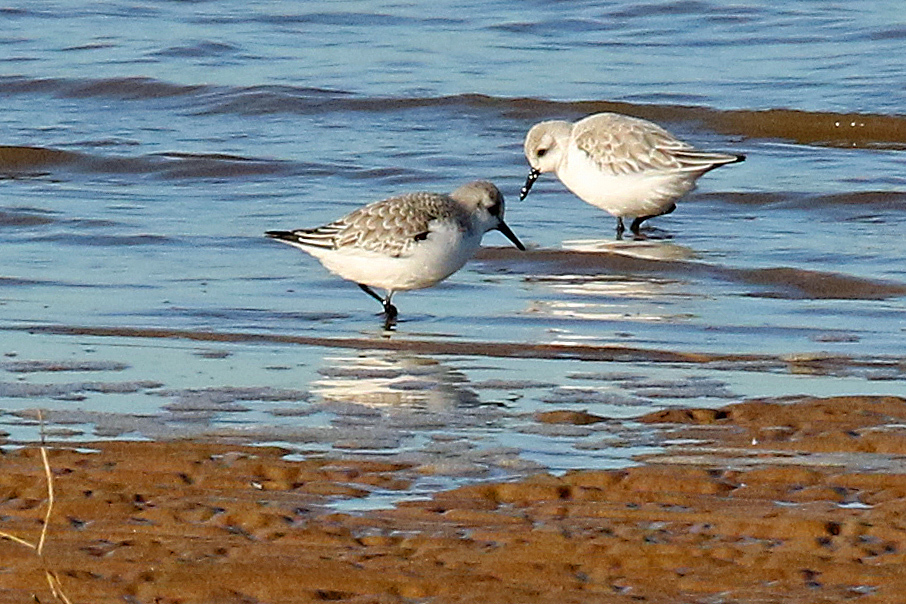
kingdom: Animalia
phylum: Chordata
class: Aves
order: Charadriiformes
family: Scolopacidae
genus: Calidris
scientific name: Calidris alba
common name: Sanderling
